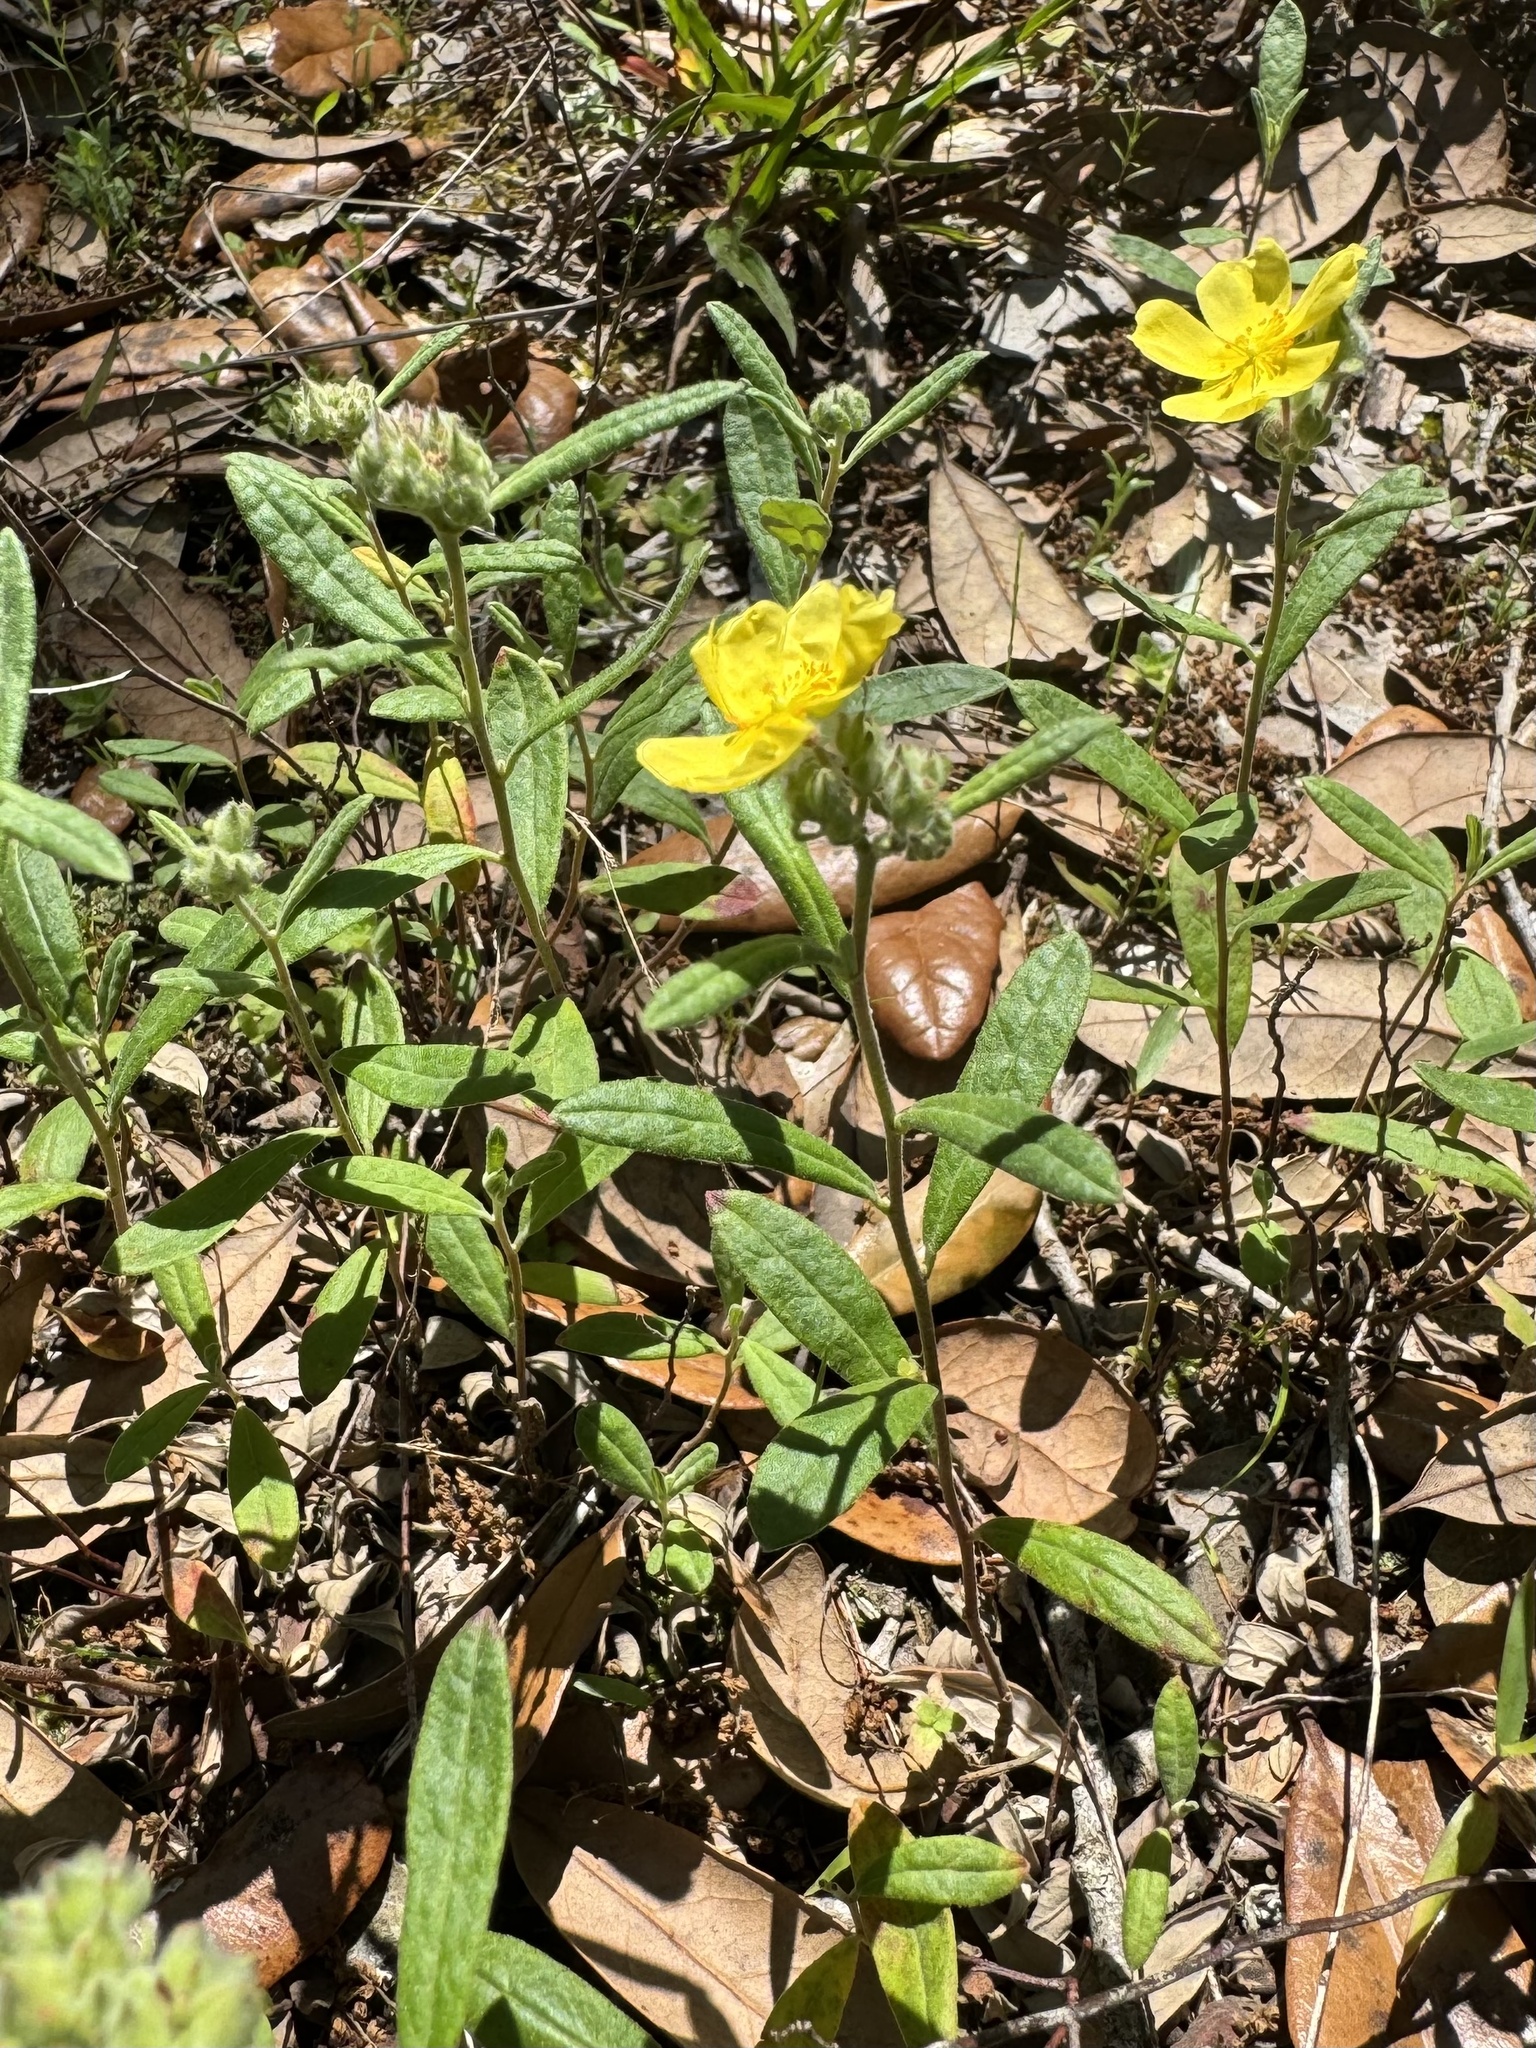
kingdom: Plantae
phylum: Tracheophyta
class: Magnoliopsida
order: Malvales
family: Cistaceae
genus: Crocanthemum
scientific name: Crocanthemum corymbosum
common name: Pinebarren sun-rose
